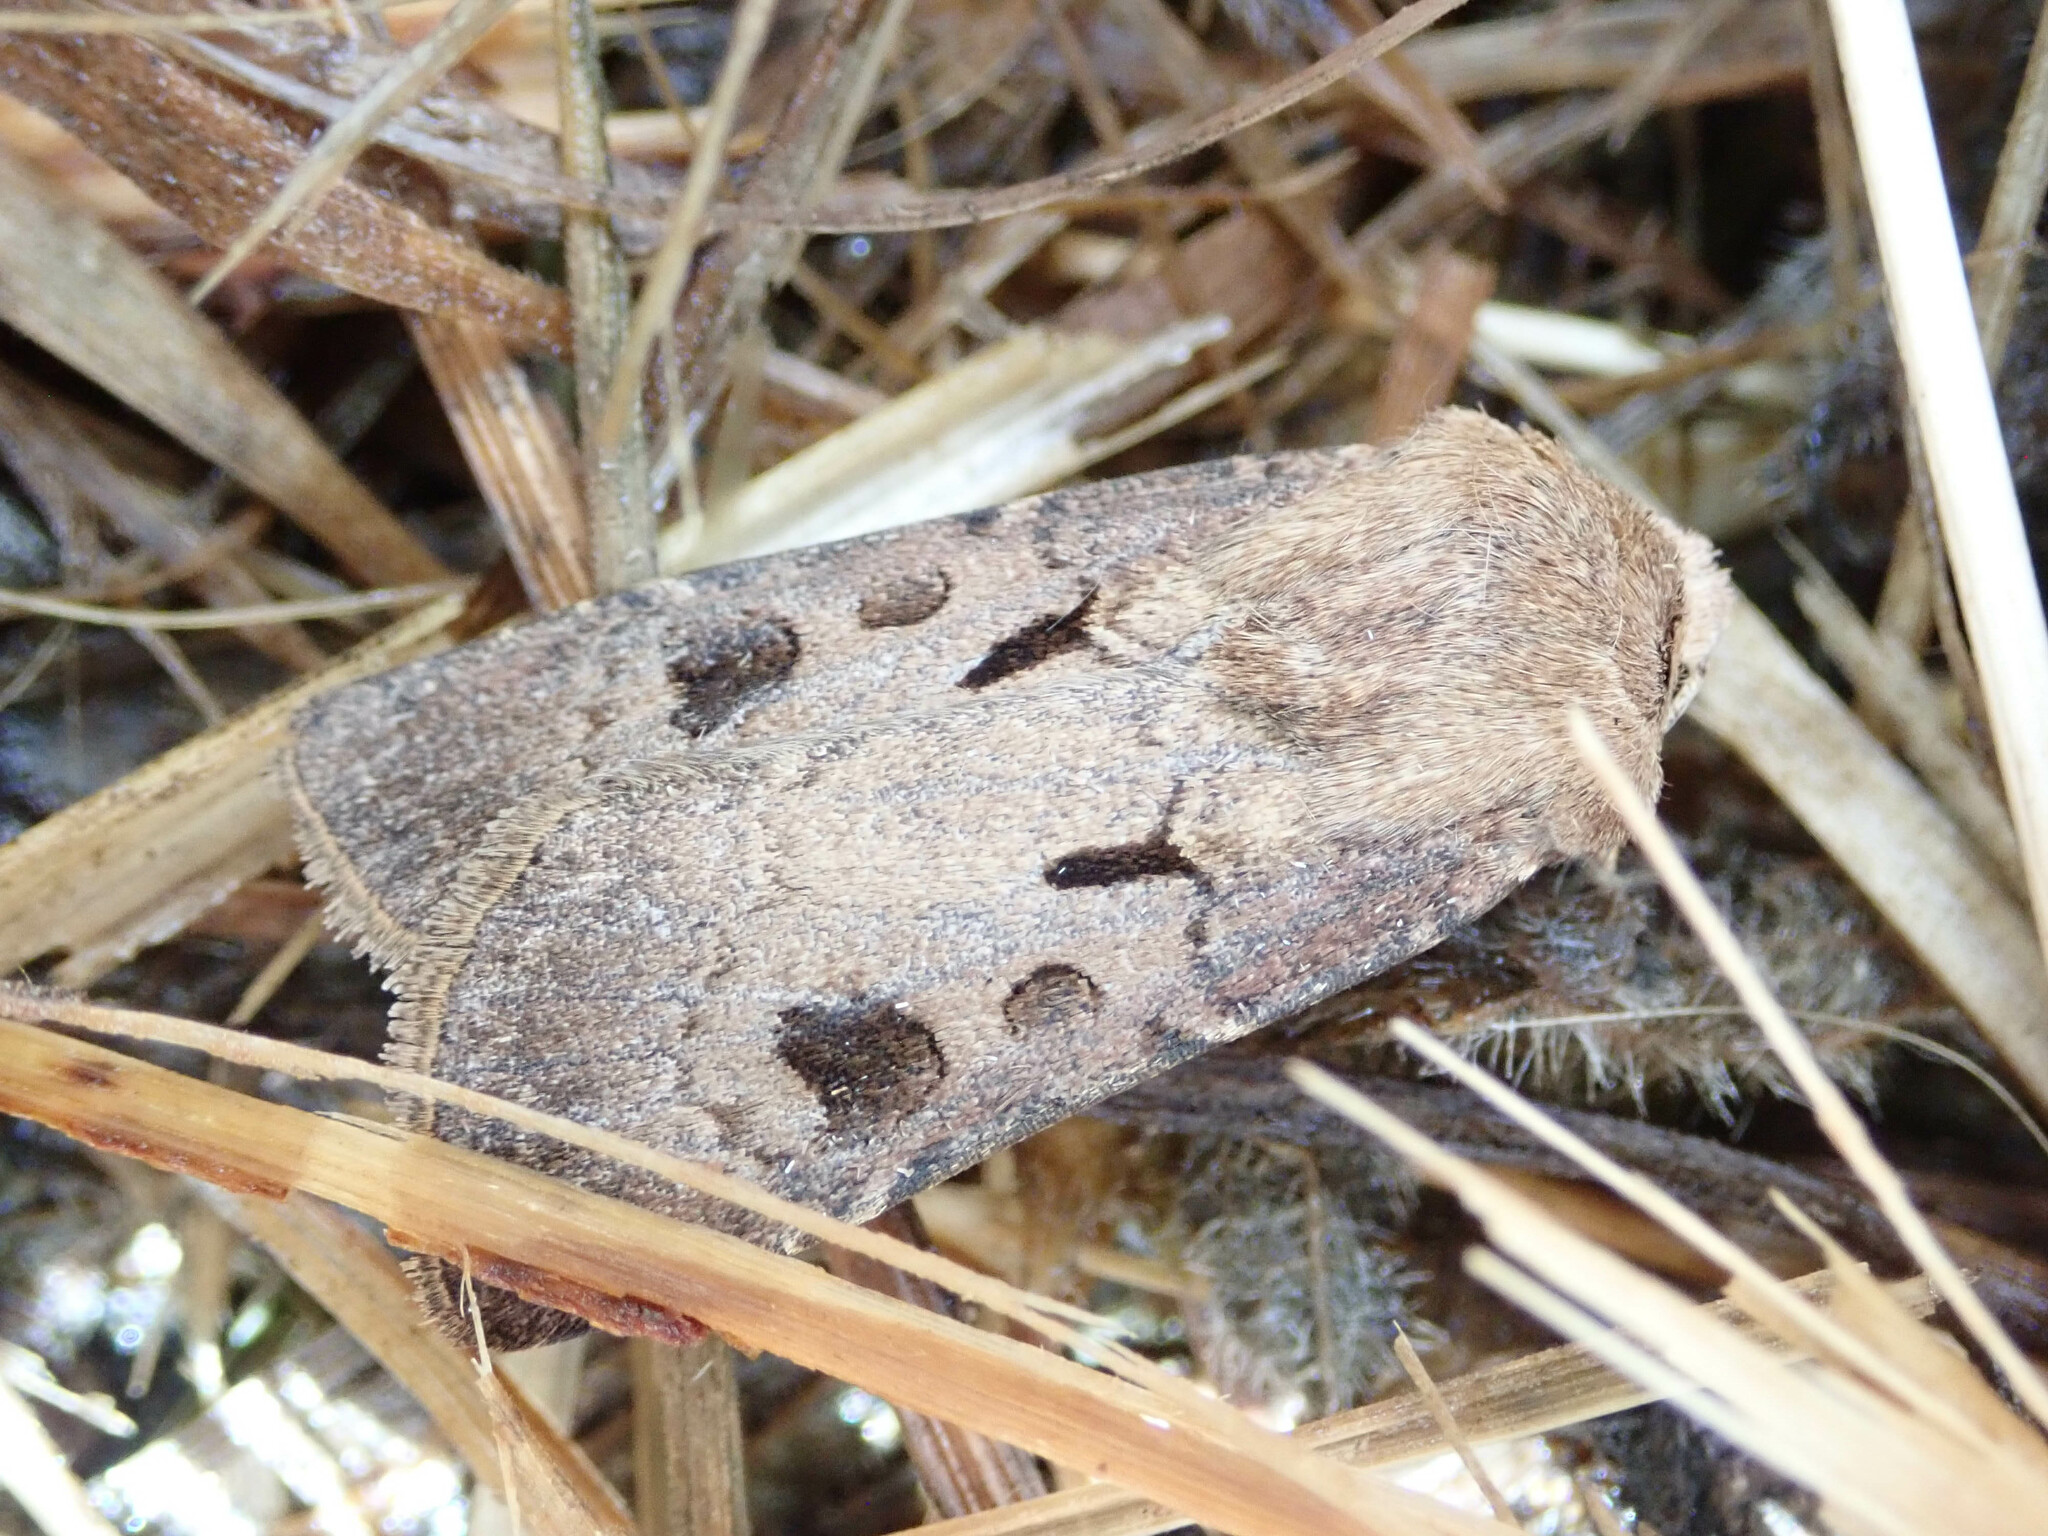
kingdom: Animalia
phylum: Arthropoda
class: Insecta
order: Lepidoptera
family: Noctuidae
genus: Agrotis
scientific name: Agrotis exclamationis
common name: Heart and dart
